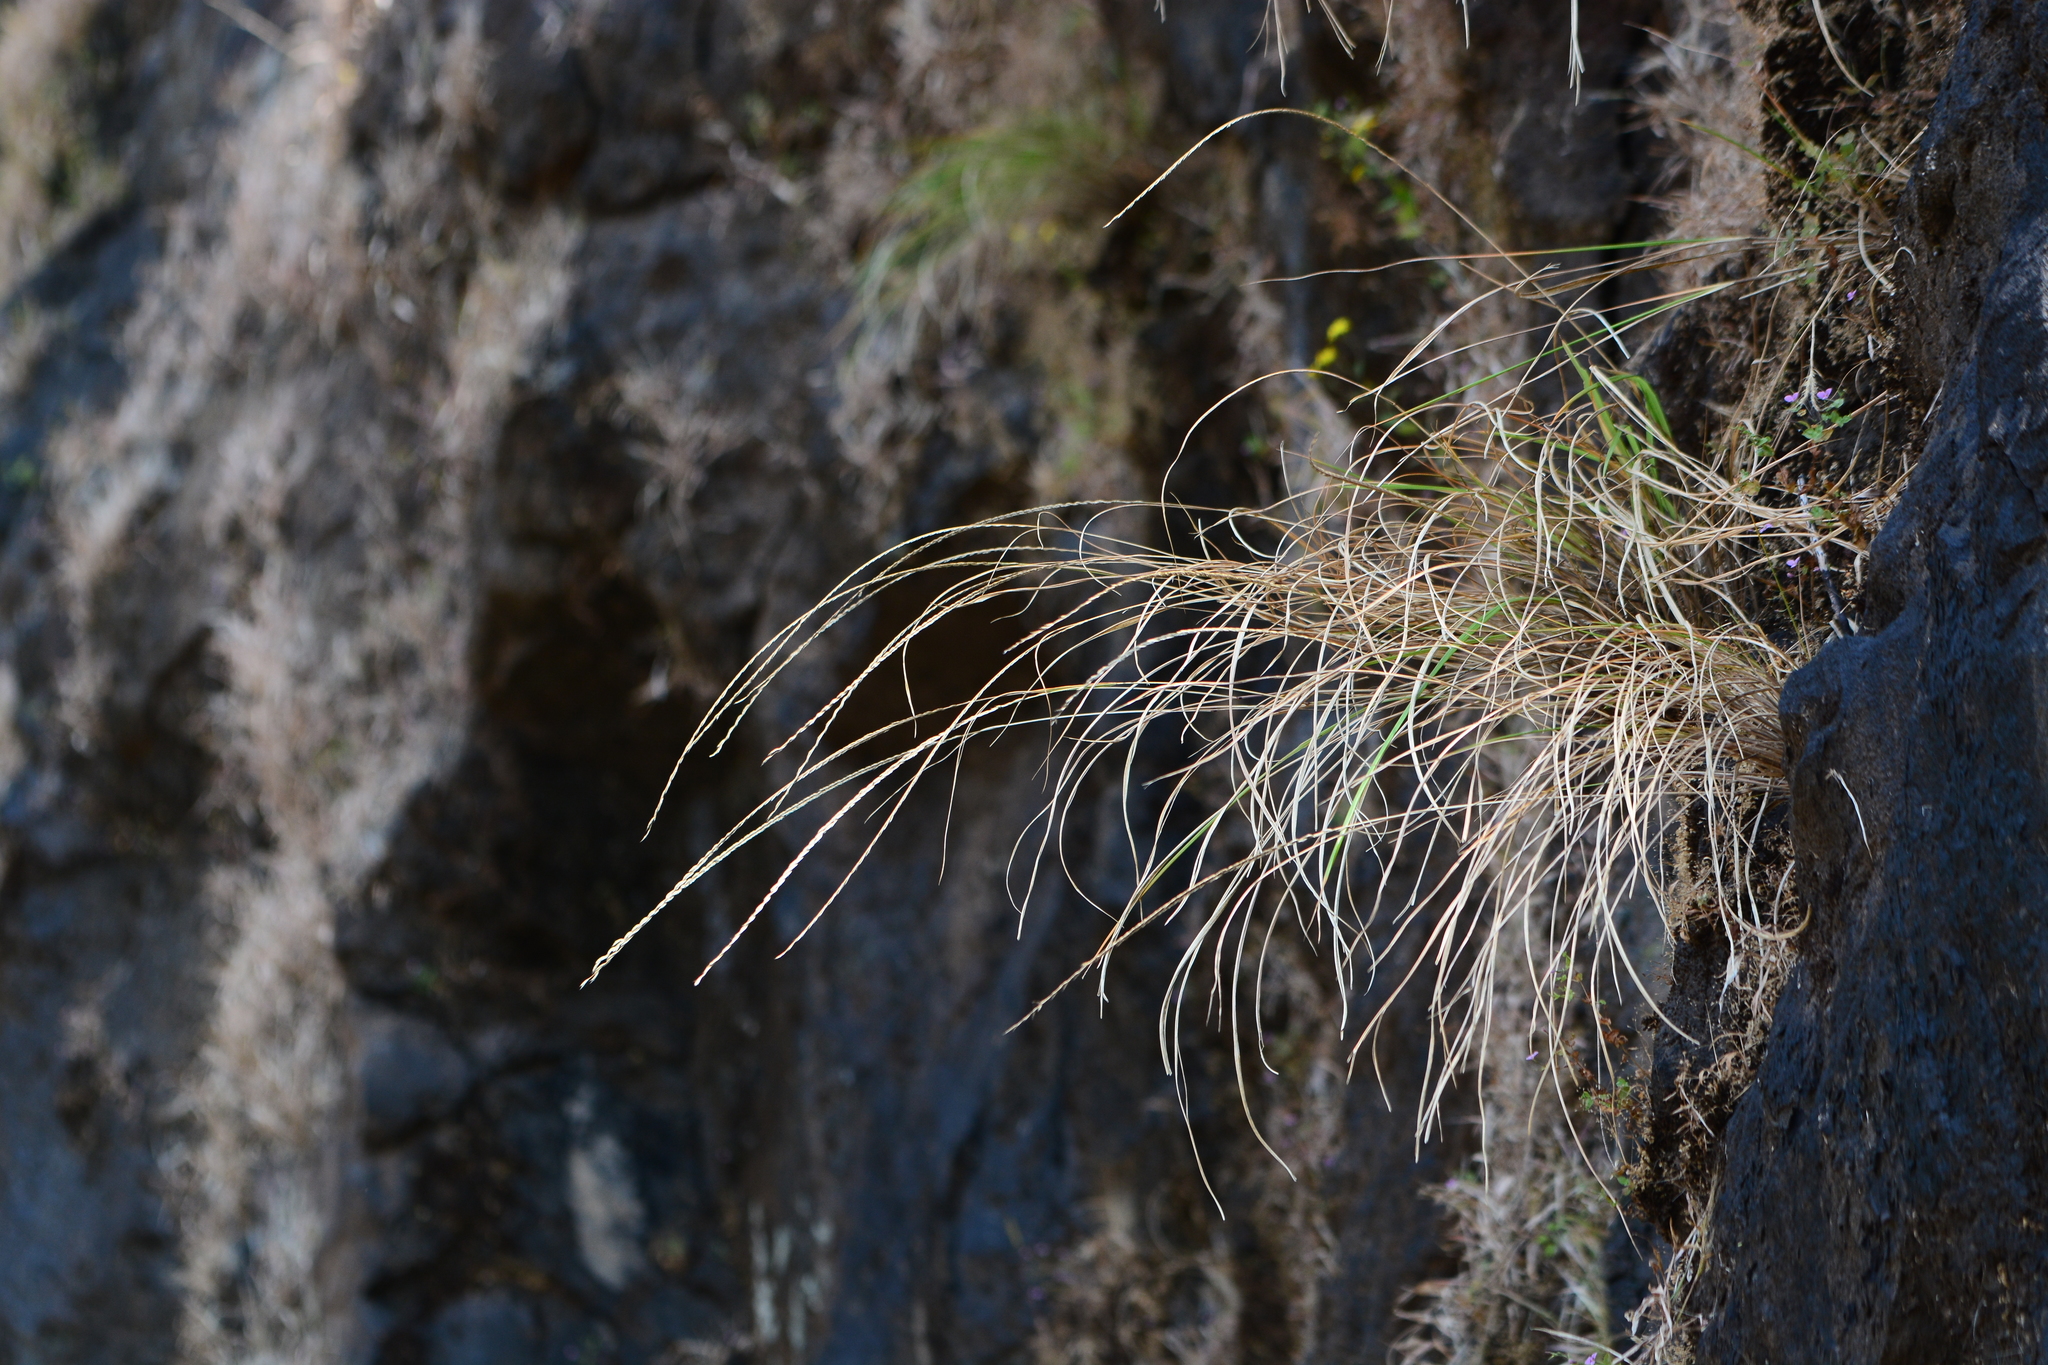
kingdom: Plantae
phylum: Tracheophyta
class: Liliopsida
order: Poales
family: Poaceae
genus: Tripogon
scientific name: Tripogon lisboae
